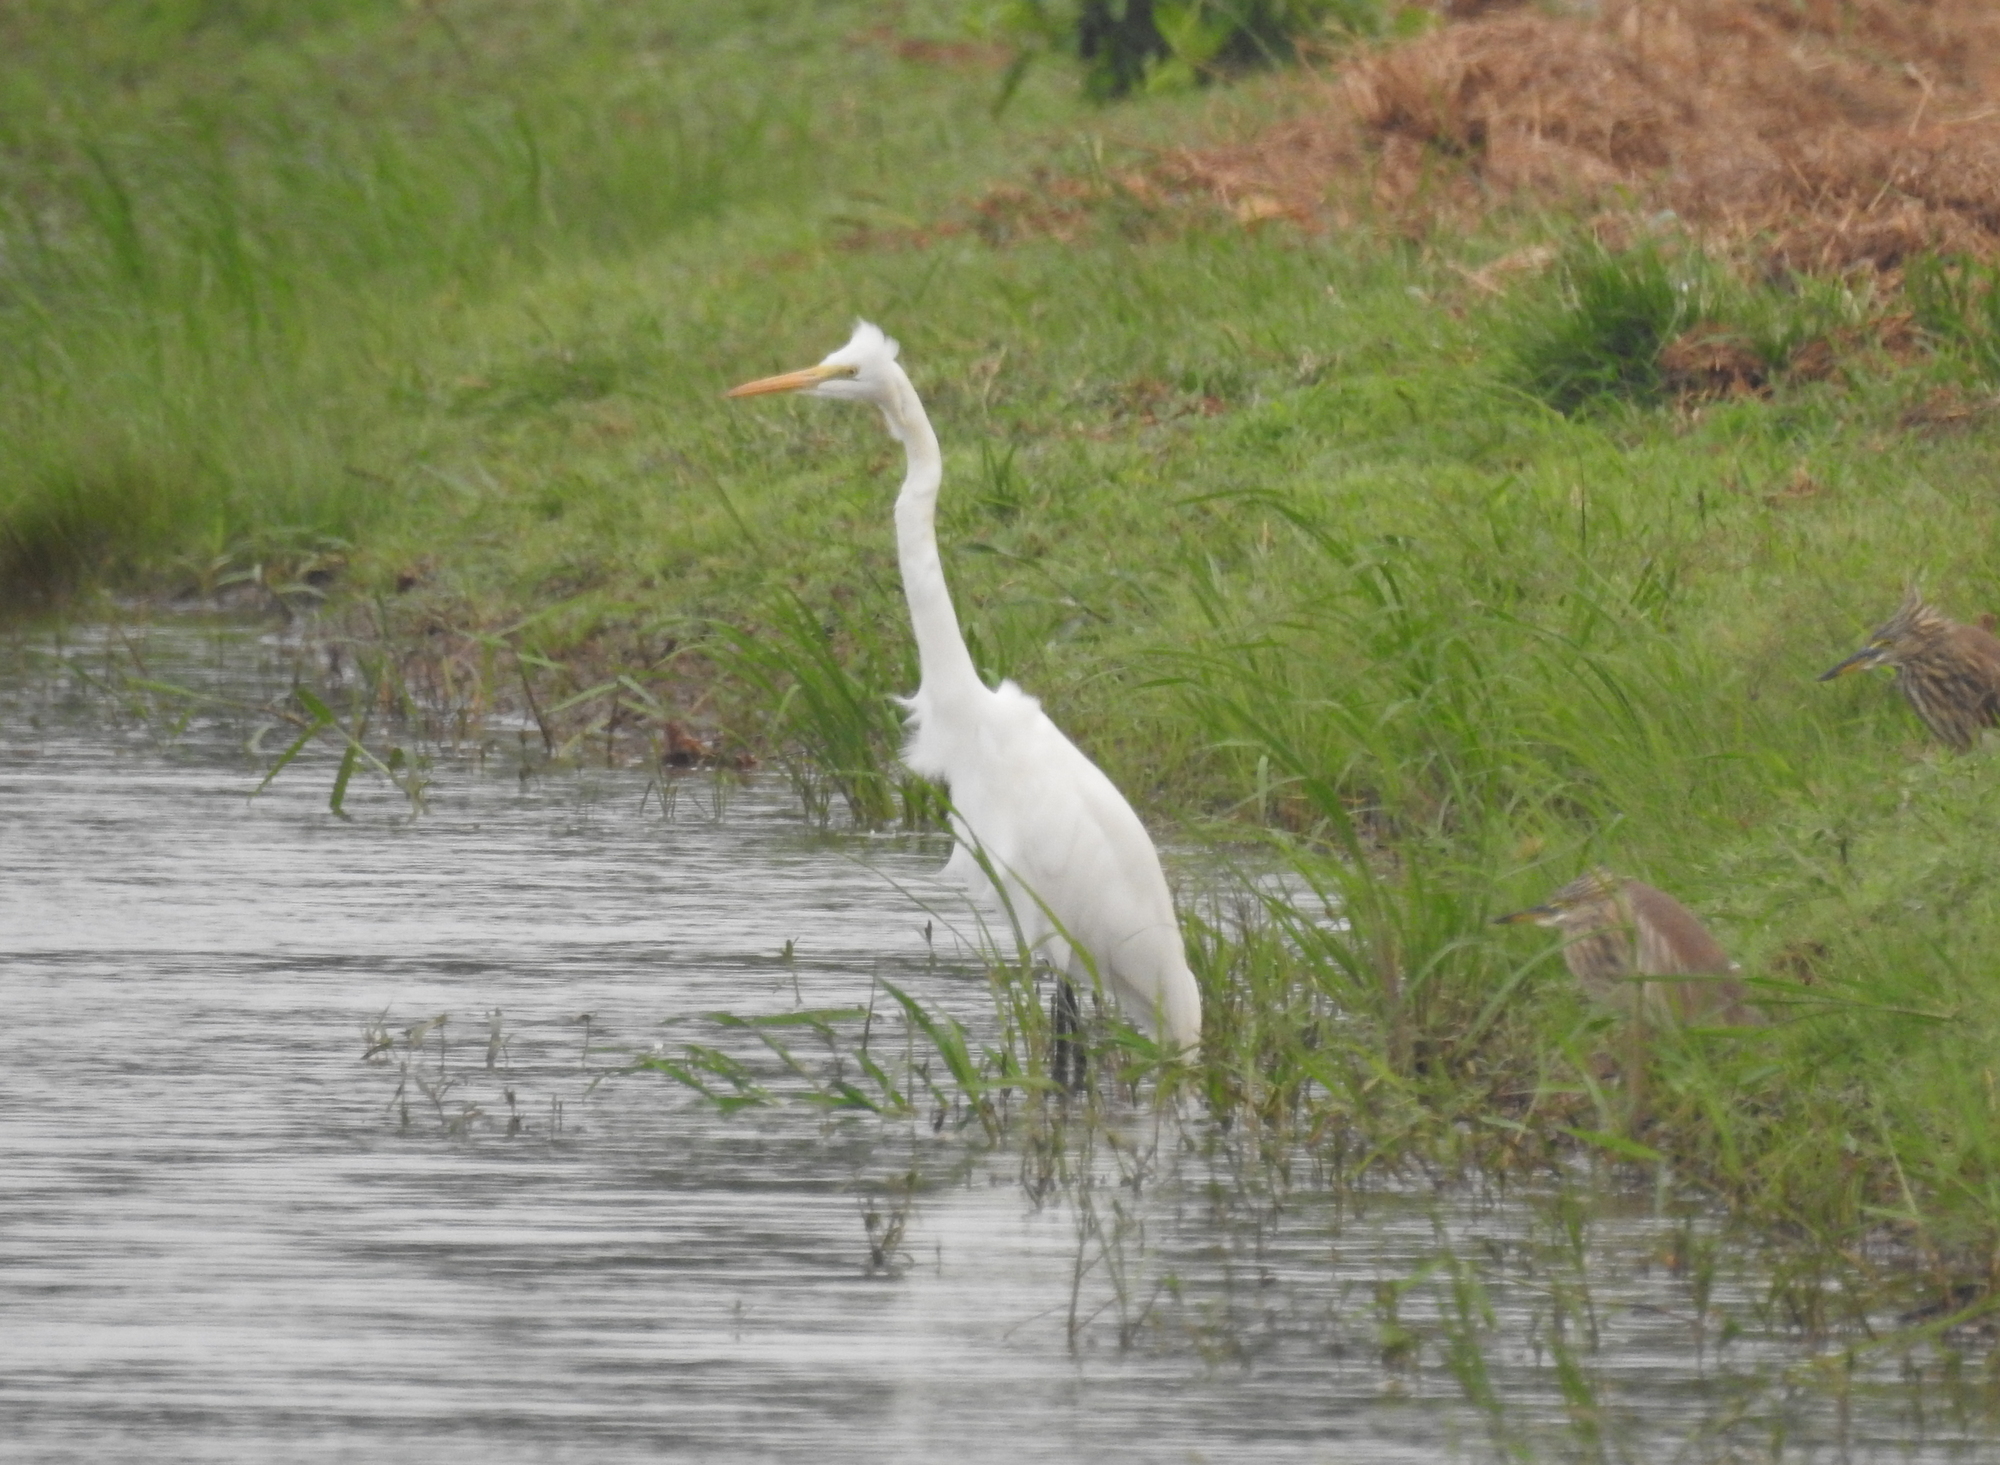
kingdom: Animalia
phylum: Chordata
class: Aves
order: Pelecaniformes
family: Ardeidae
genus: Ardea
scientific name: Ardea alba
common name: Great egret
